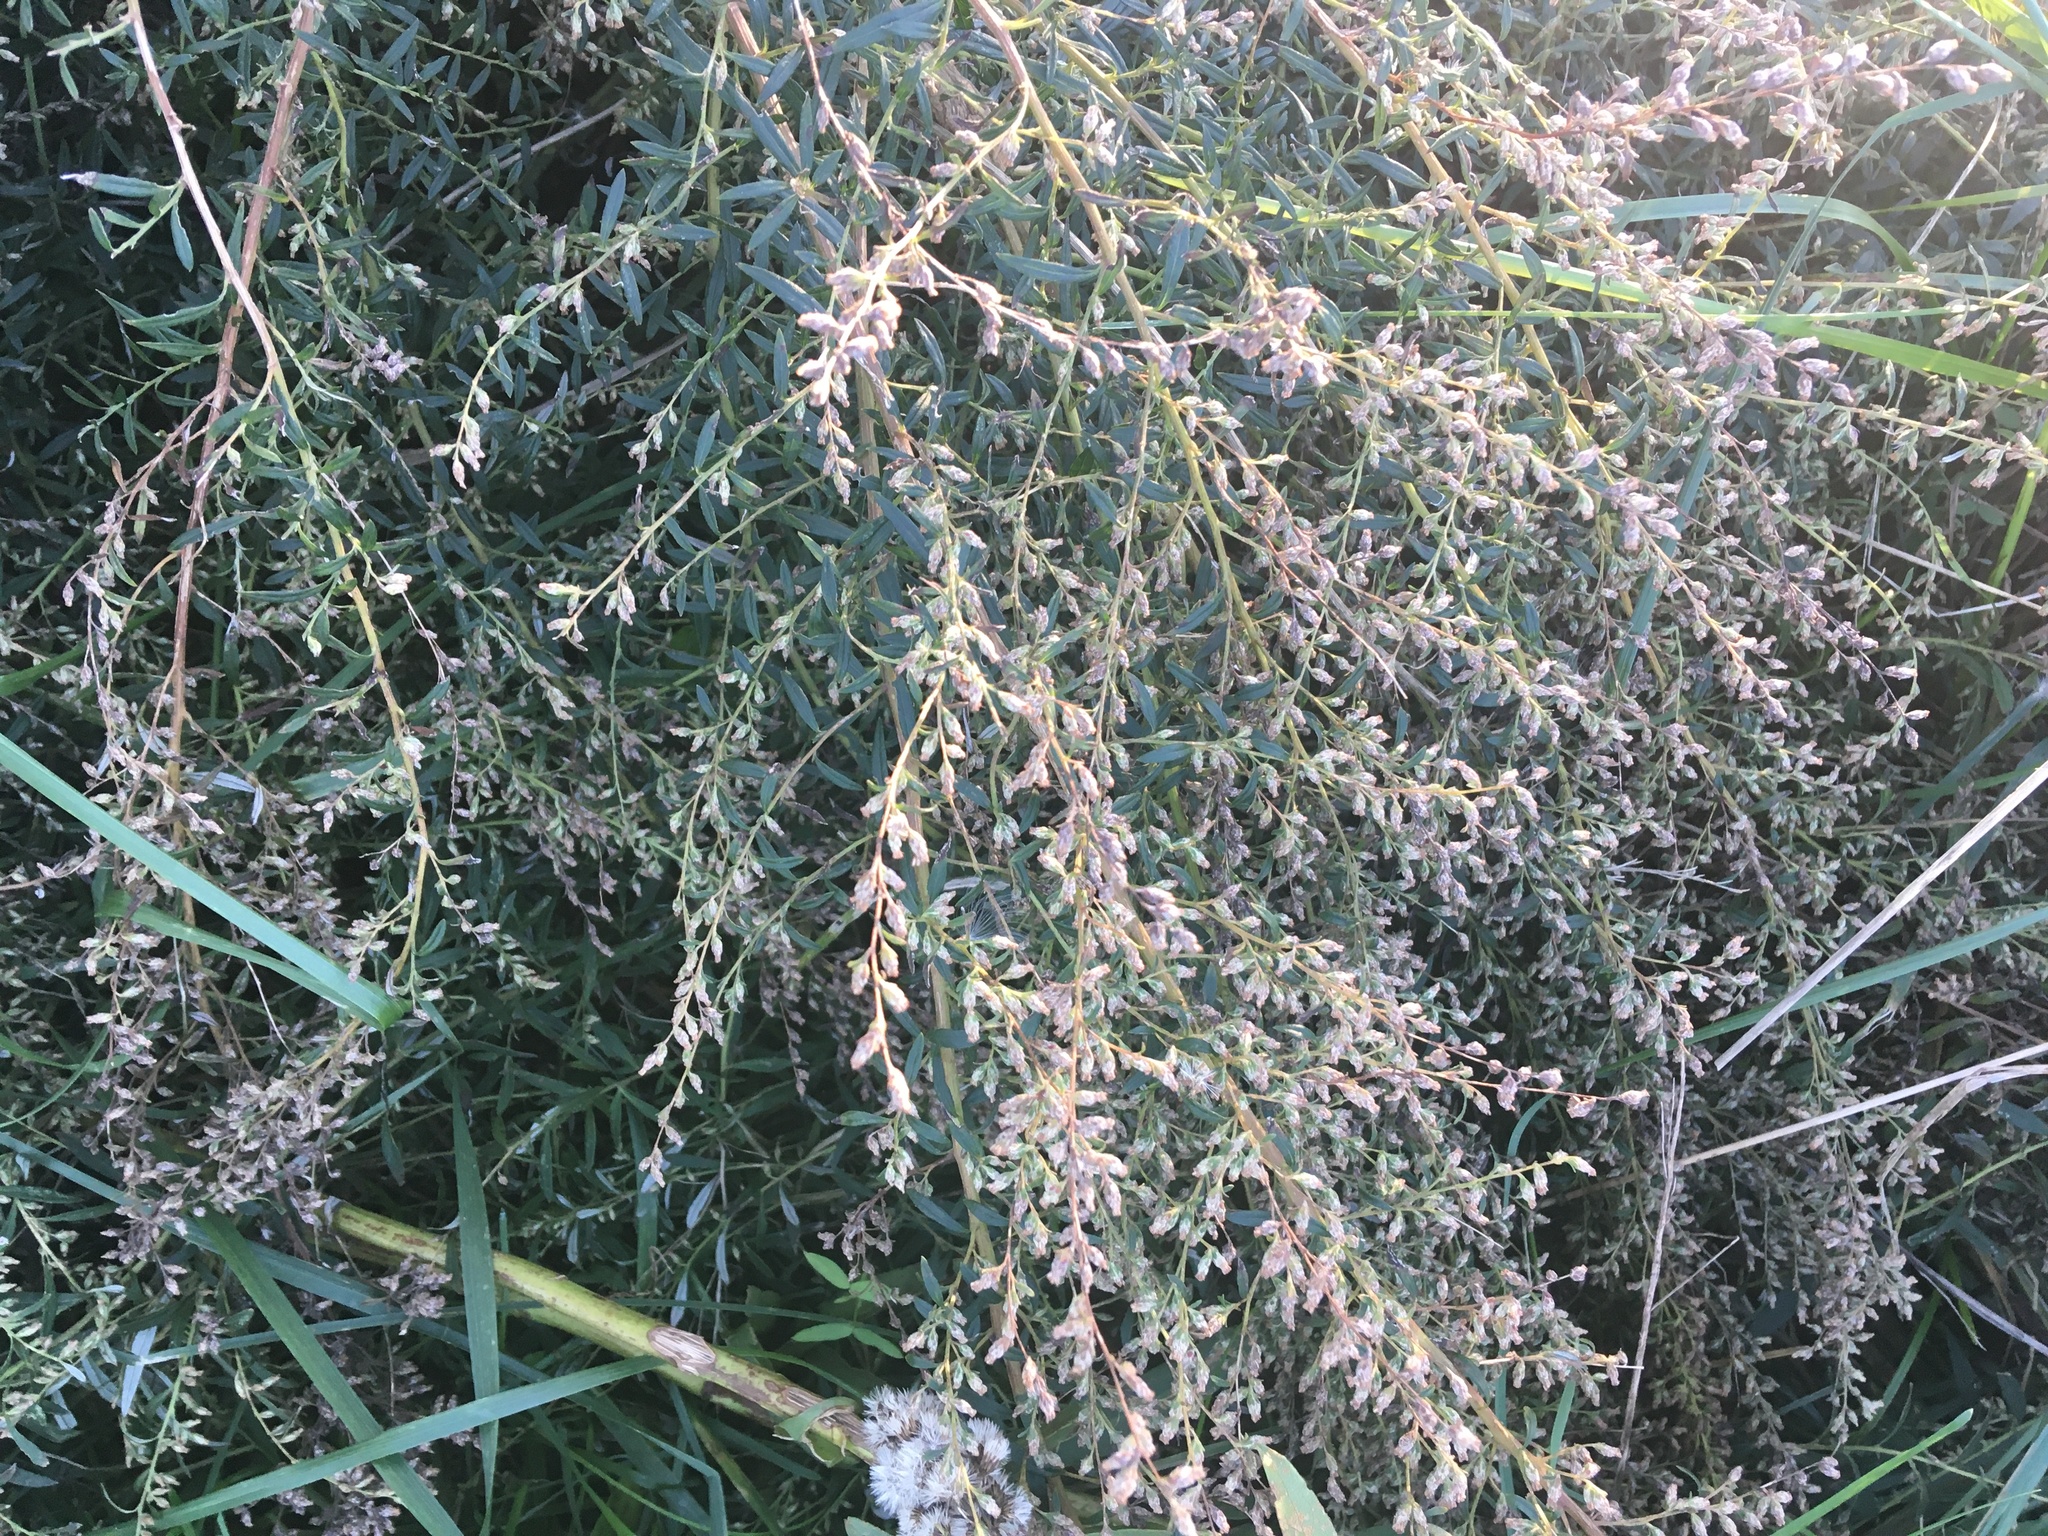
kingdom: Plantae
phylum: Tracheophyta
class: Magnoliopsida
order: Asterales
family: Asteraceae
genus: Artemisia
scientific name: Artemisia vulgaris
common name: Mugwort
